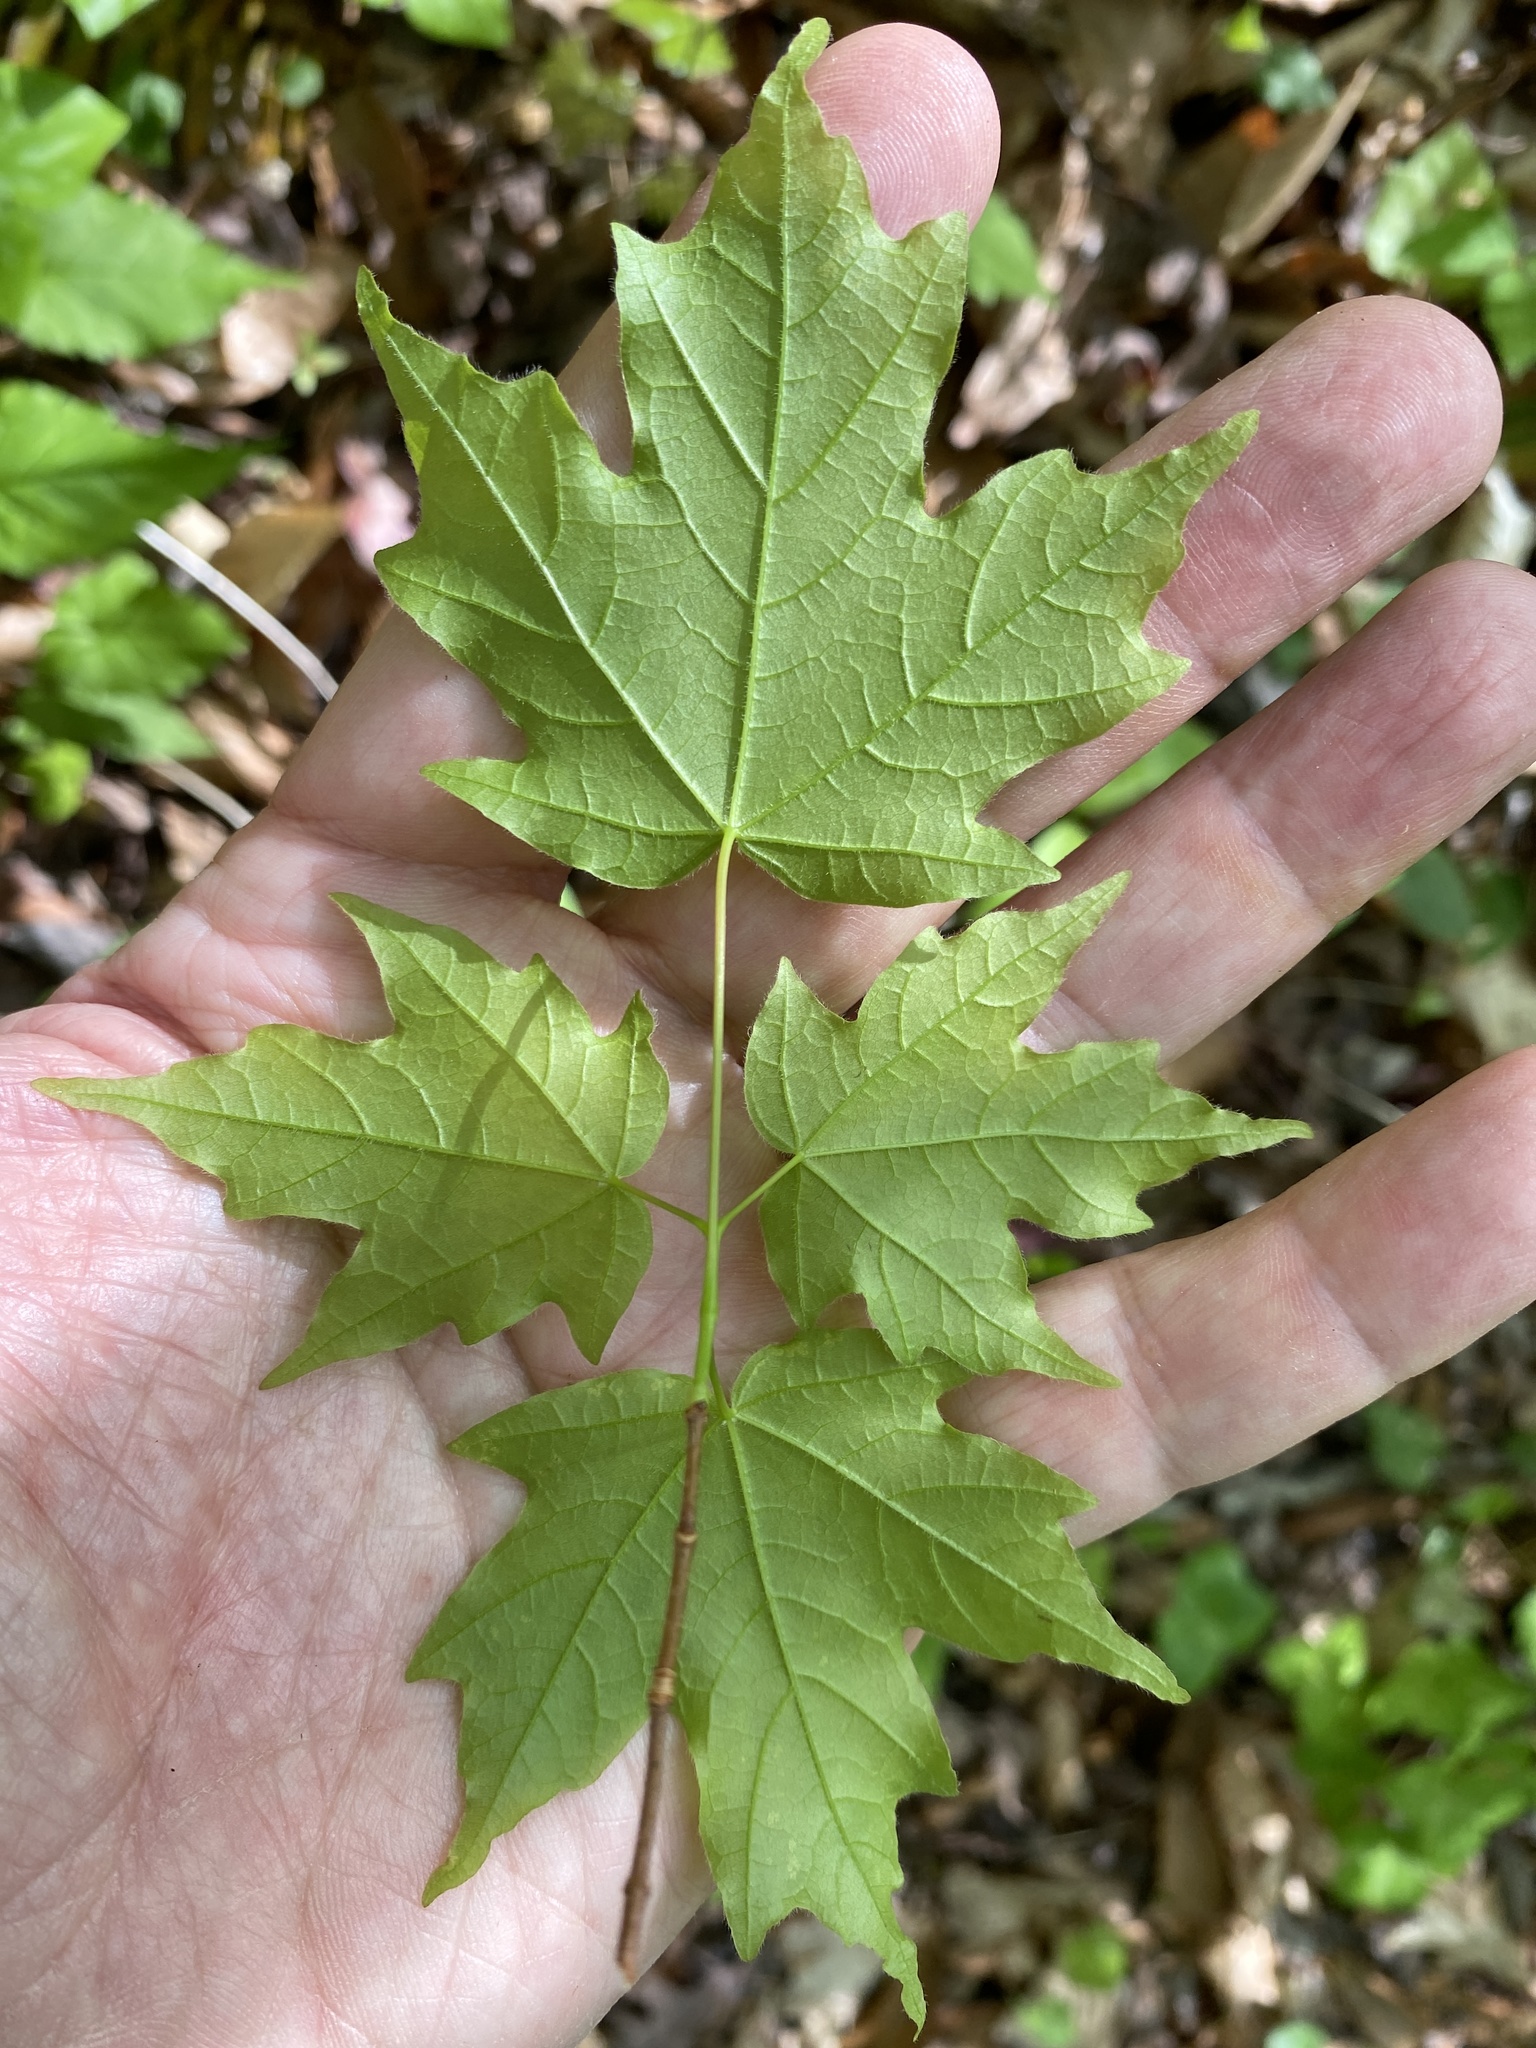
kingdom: Plantae
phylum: Tracheophyta
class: Magnoliopsida
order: Sapindales
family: Sapindaceae
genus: Acer
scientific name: Acer leucoderme
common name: Chalk maple
